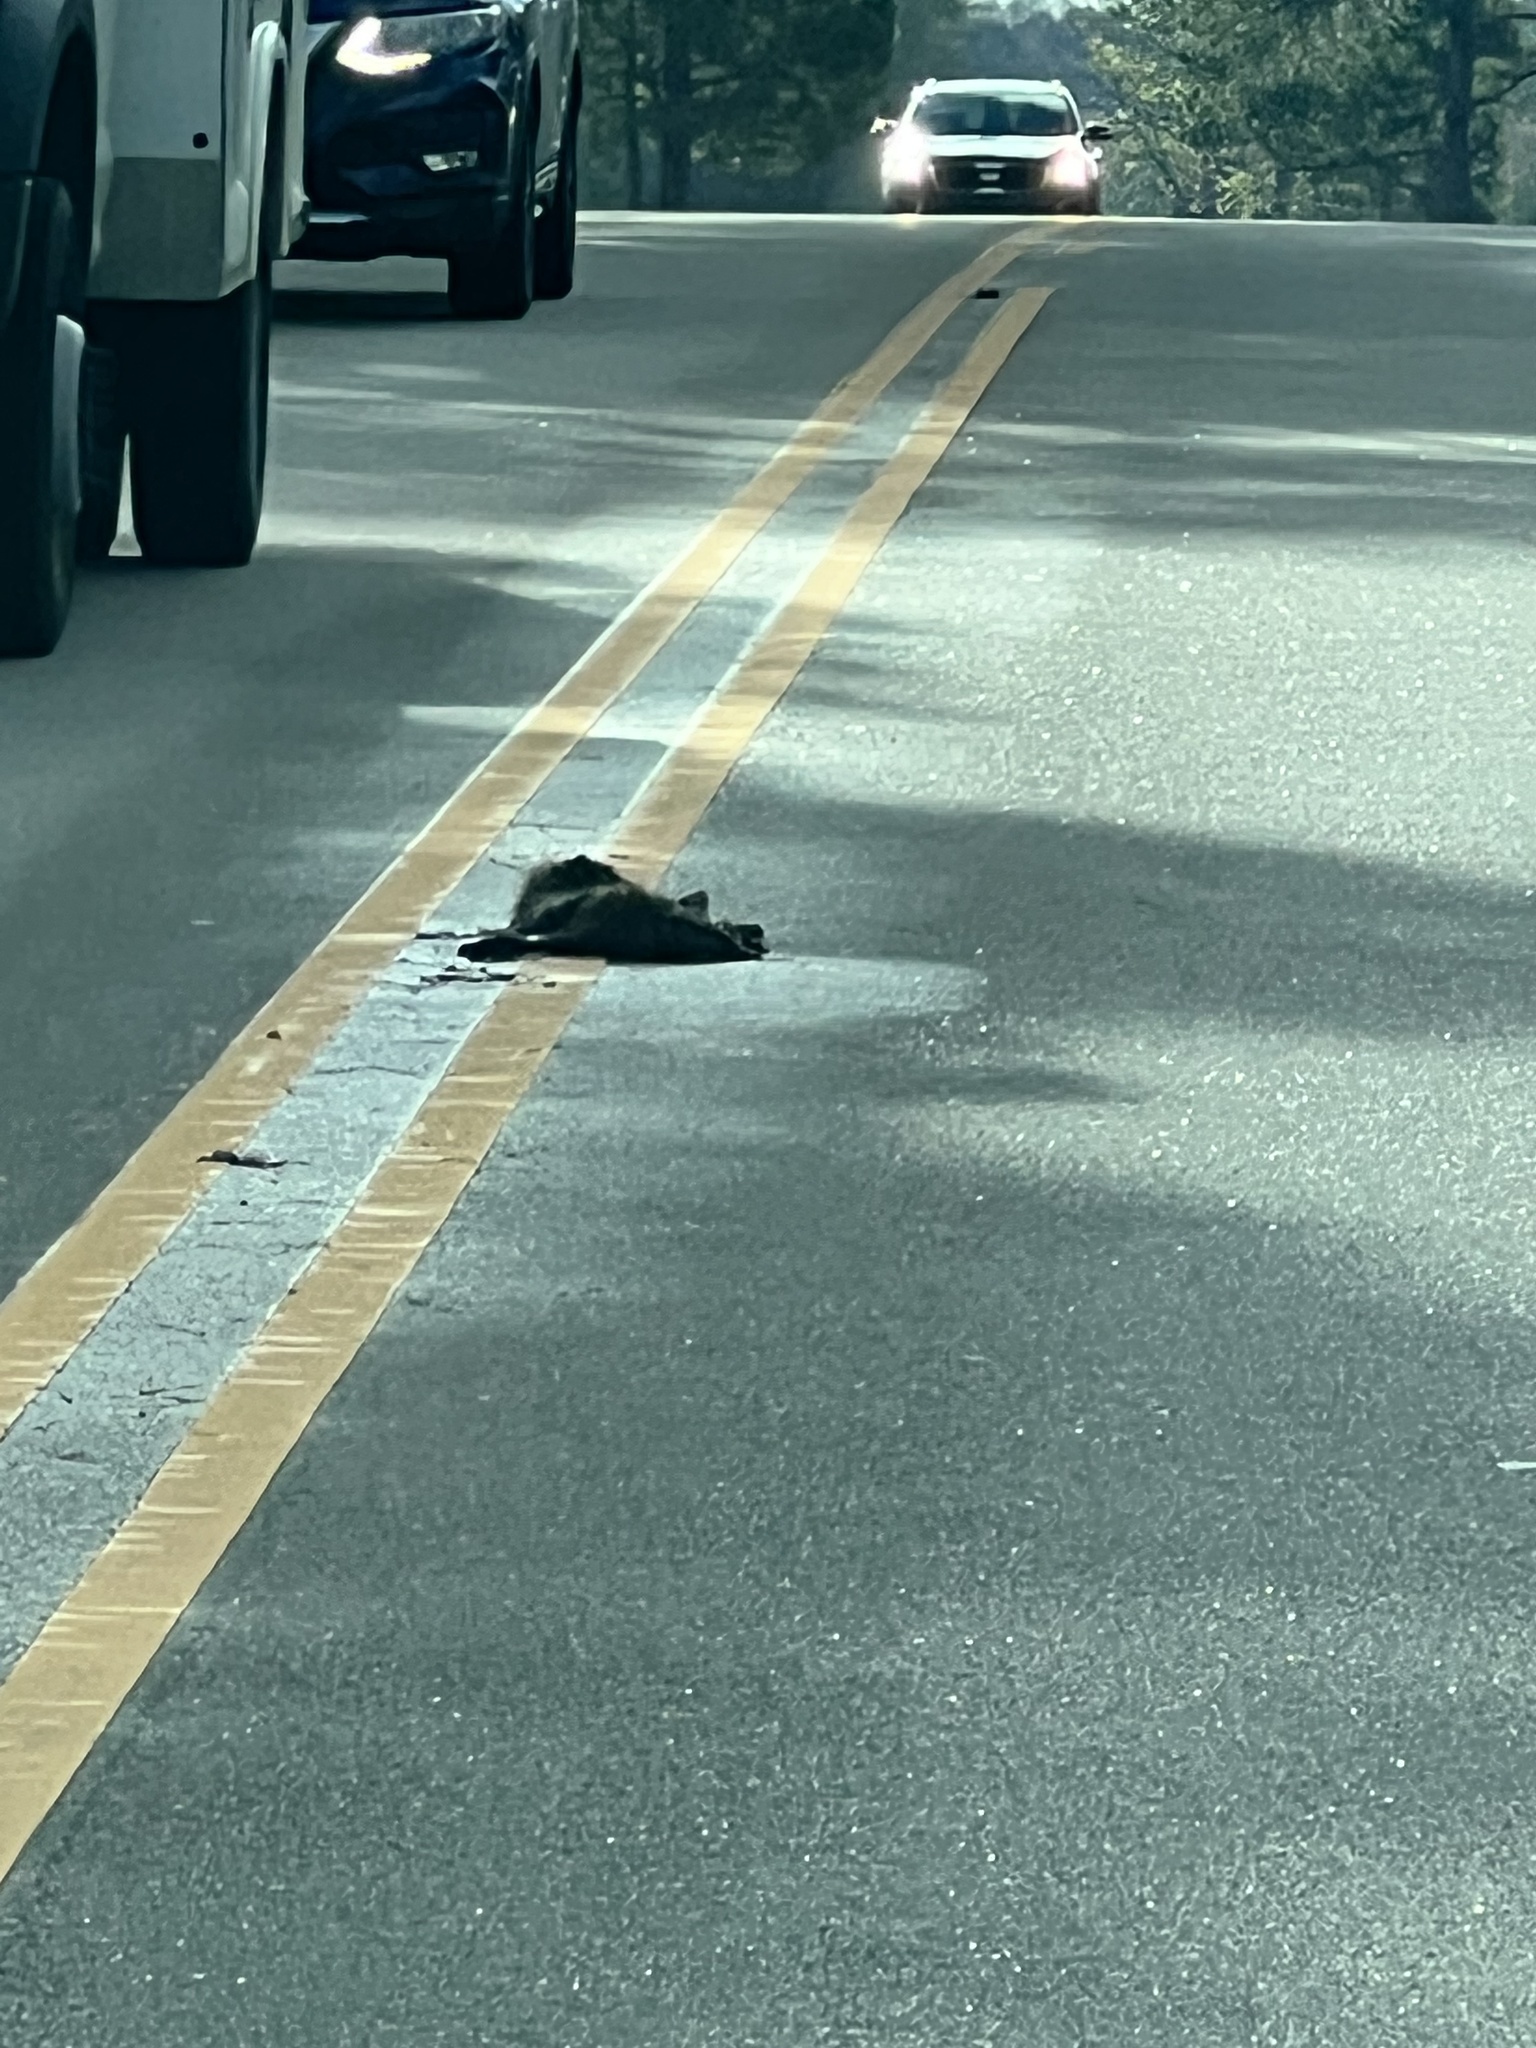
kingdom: Animalia
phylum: Chordata
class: Mammalia
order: Carnivora
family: Procyonidae
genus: Procyon
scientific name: Procyon lotor
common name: Raccoon
